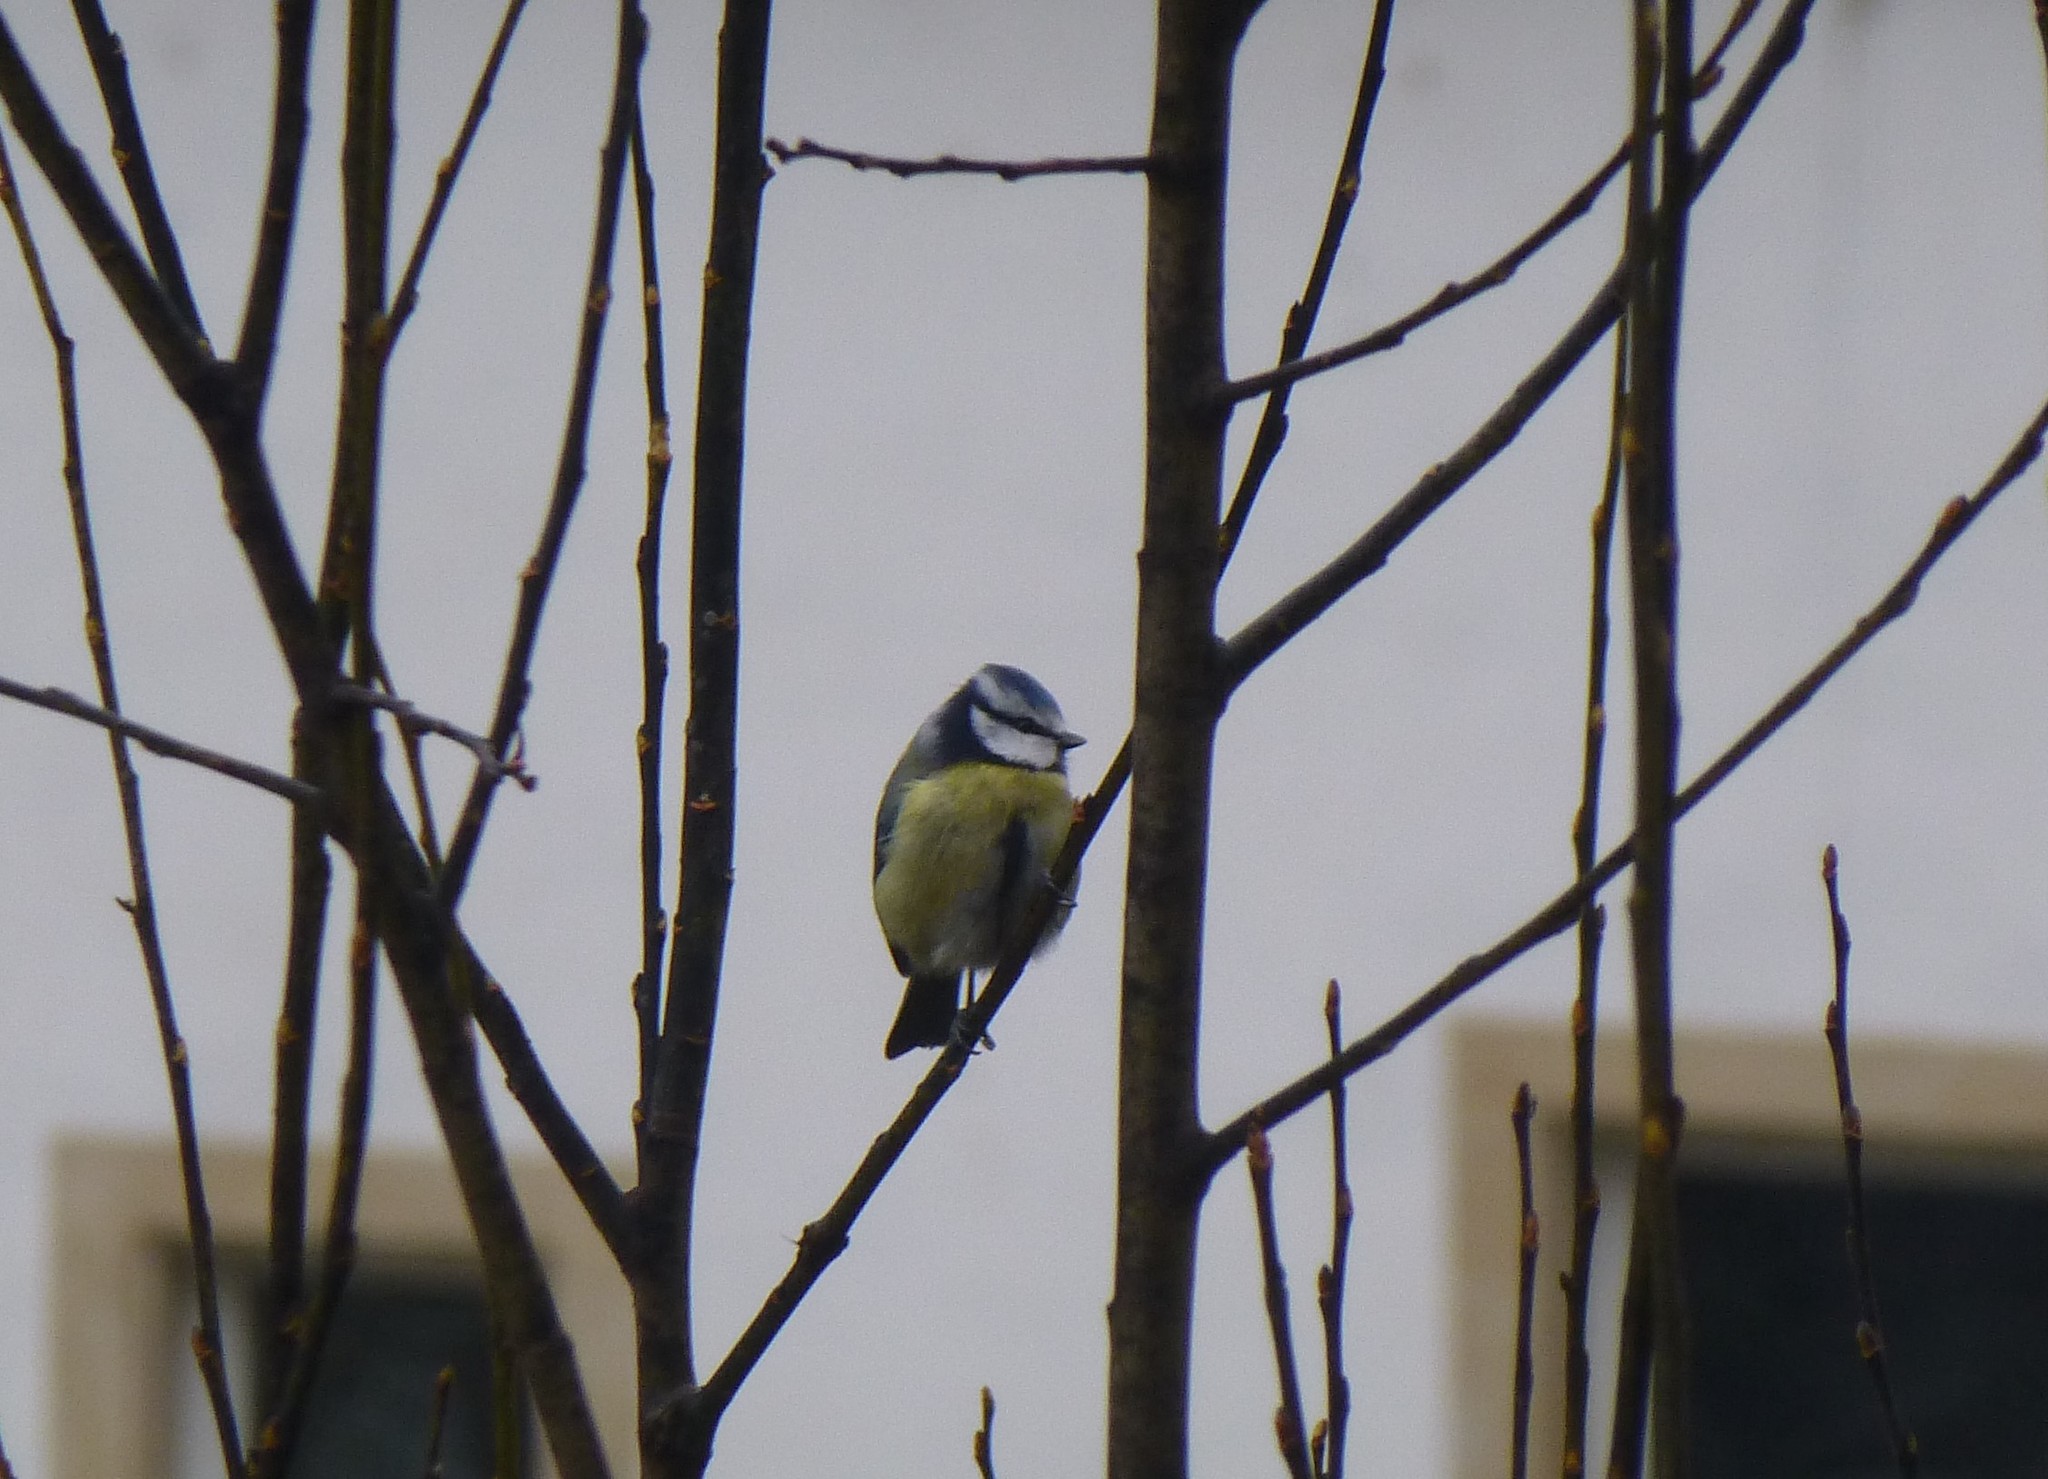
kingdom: Animalia
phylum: Chordata
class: Aves
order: Passeriformes
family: Paridae
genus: Cyanistes
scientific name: Cyanistes caeruleus
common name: Eurasian blue tit
